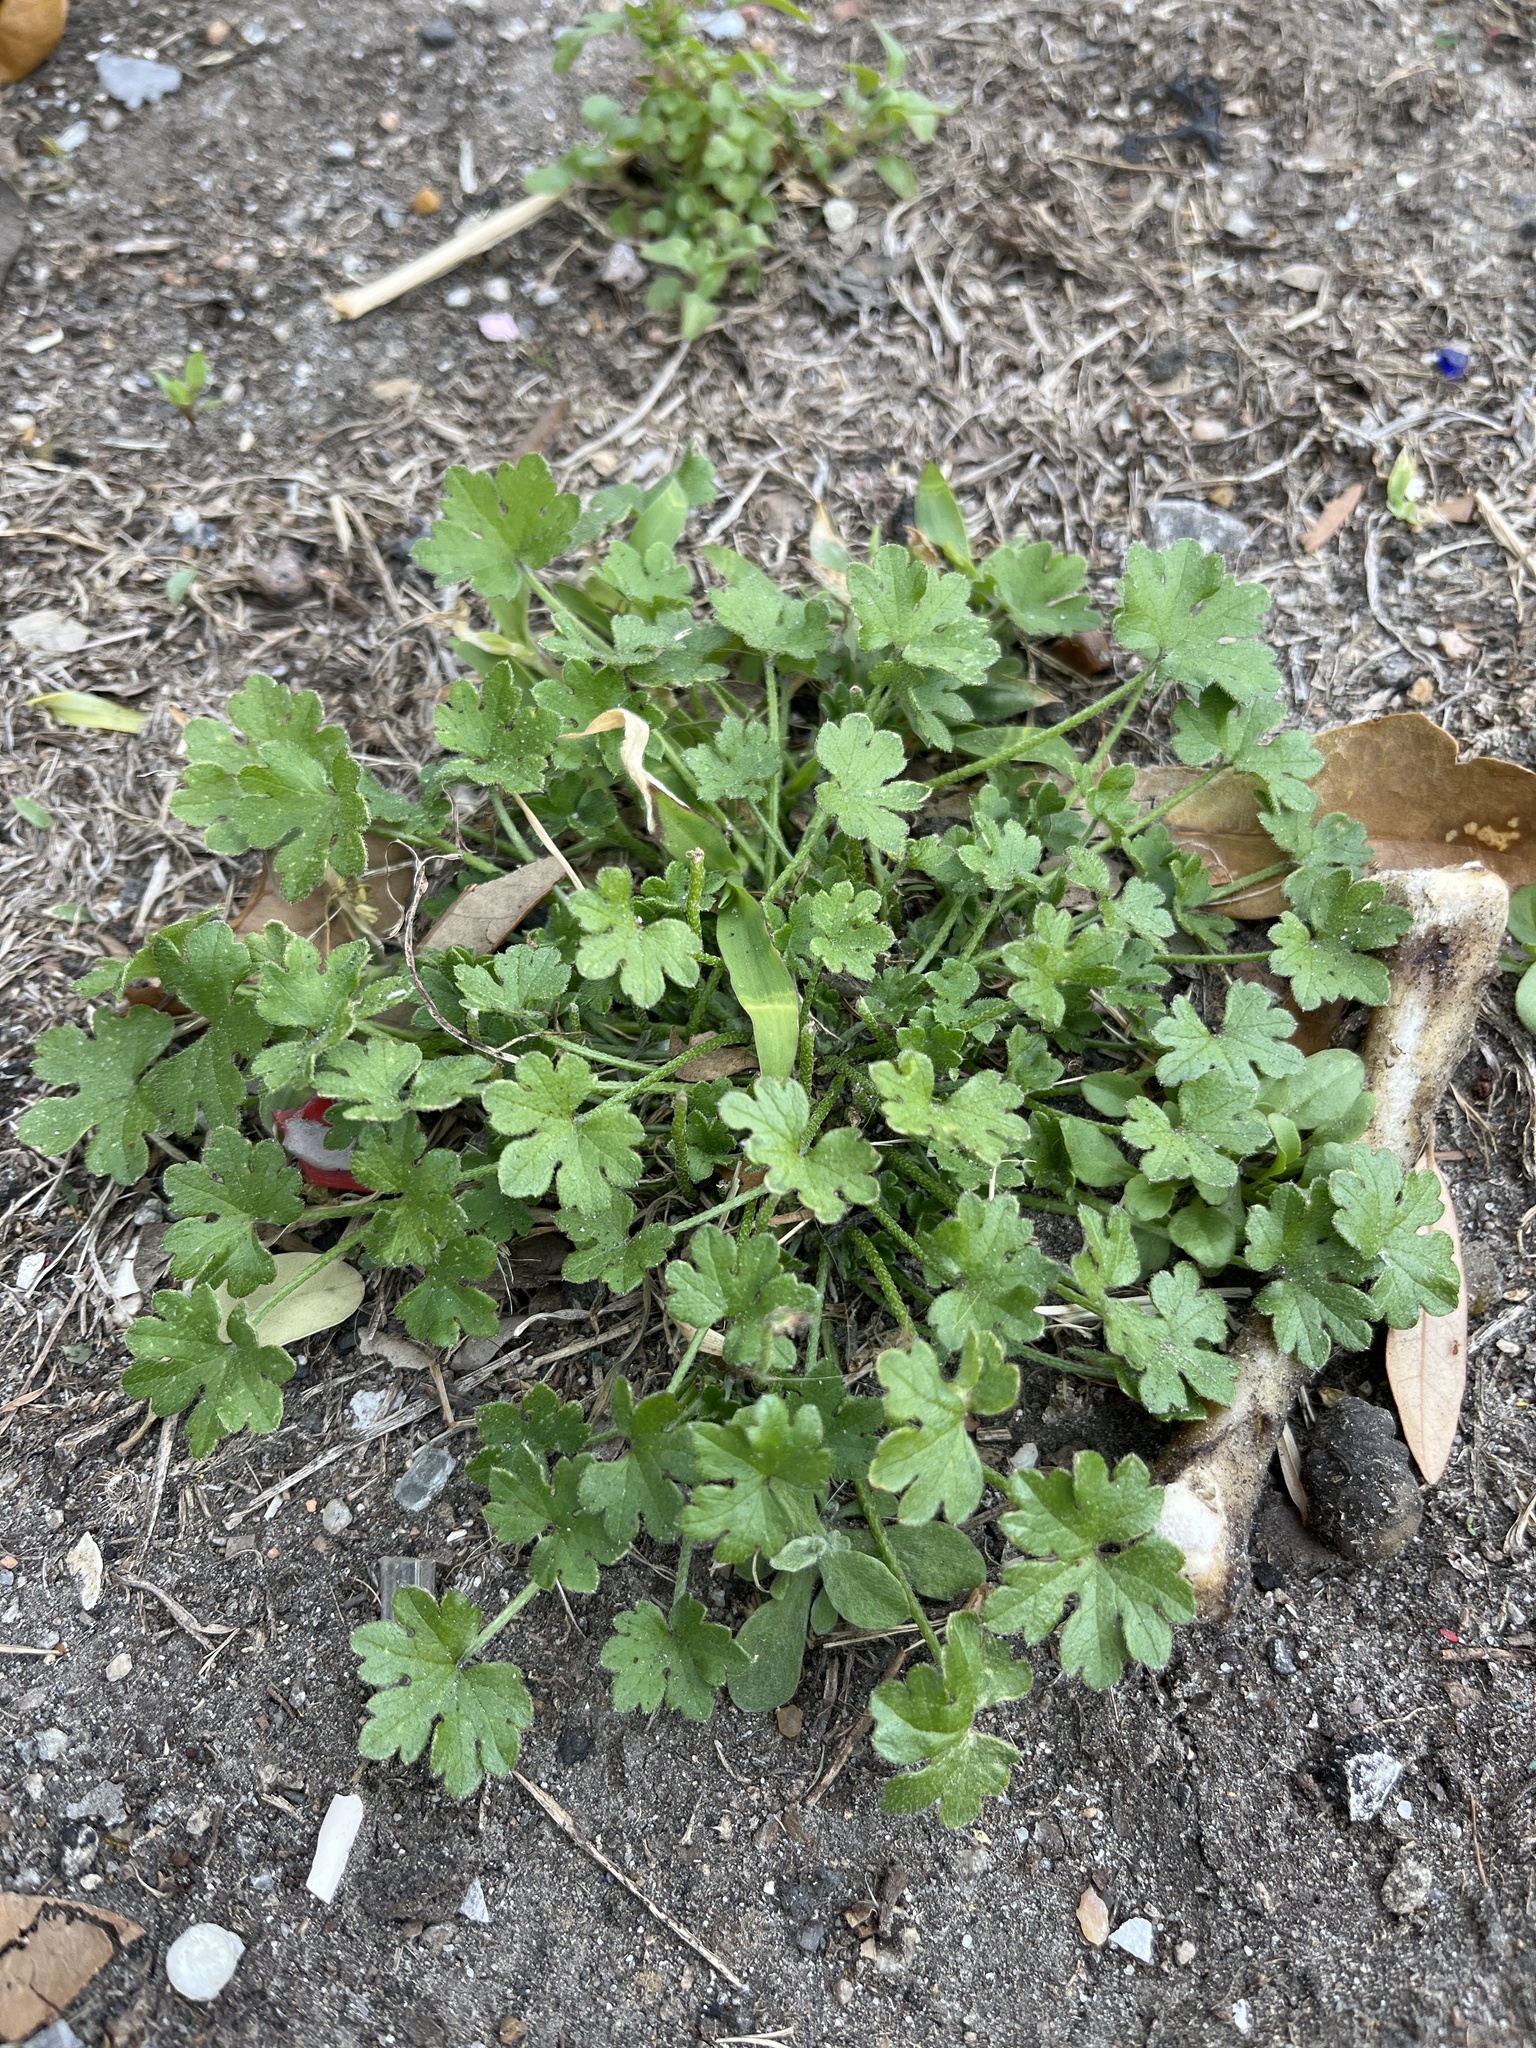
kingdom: Plantae
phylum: Tracheophyta
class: Magnoliopsida
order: Apiales
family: Apiaceae
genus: Bowlesia
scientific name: Bowlesia incana
